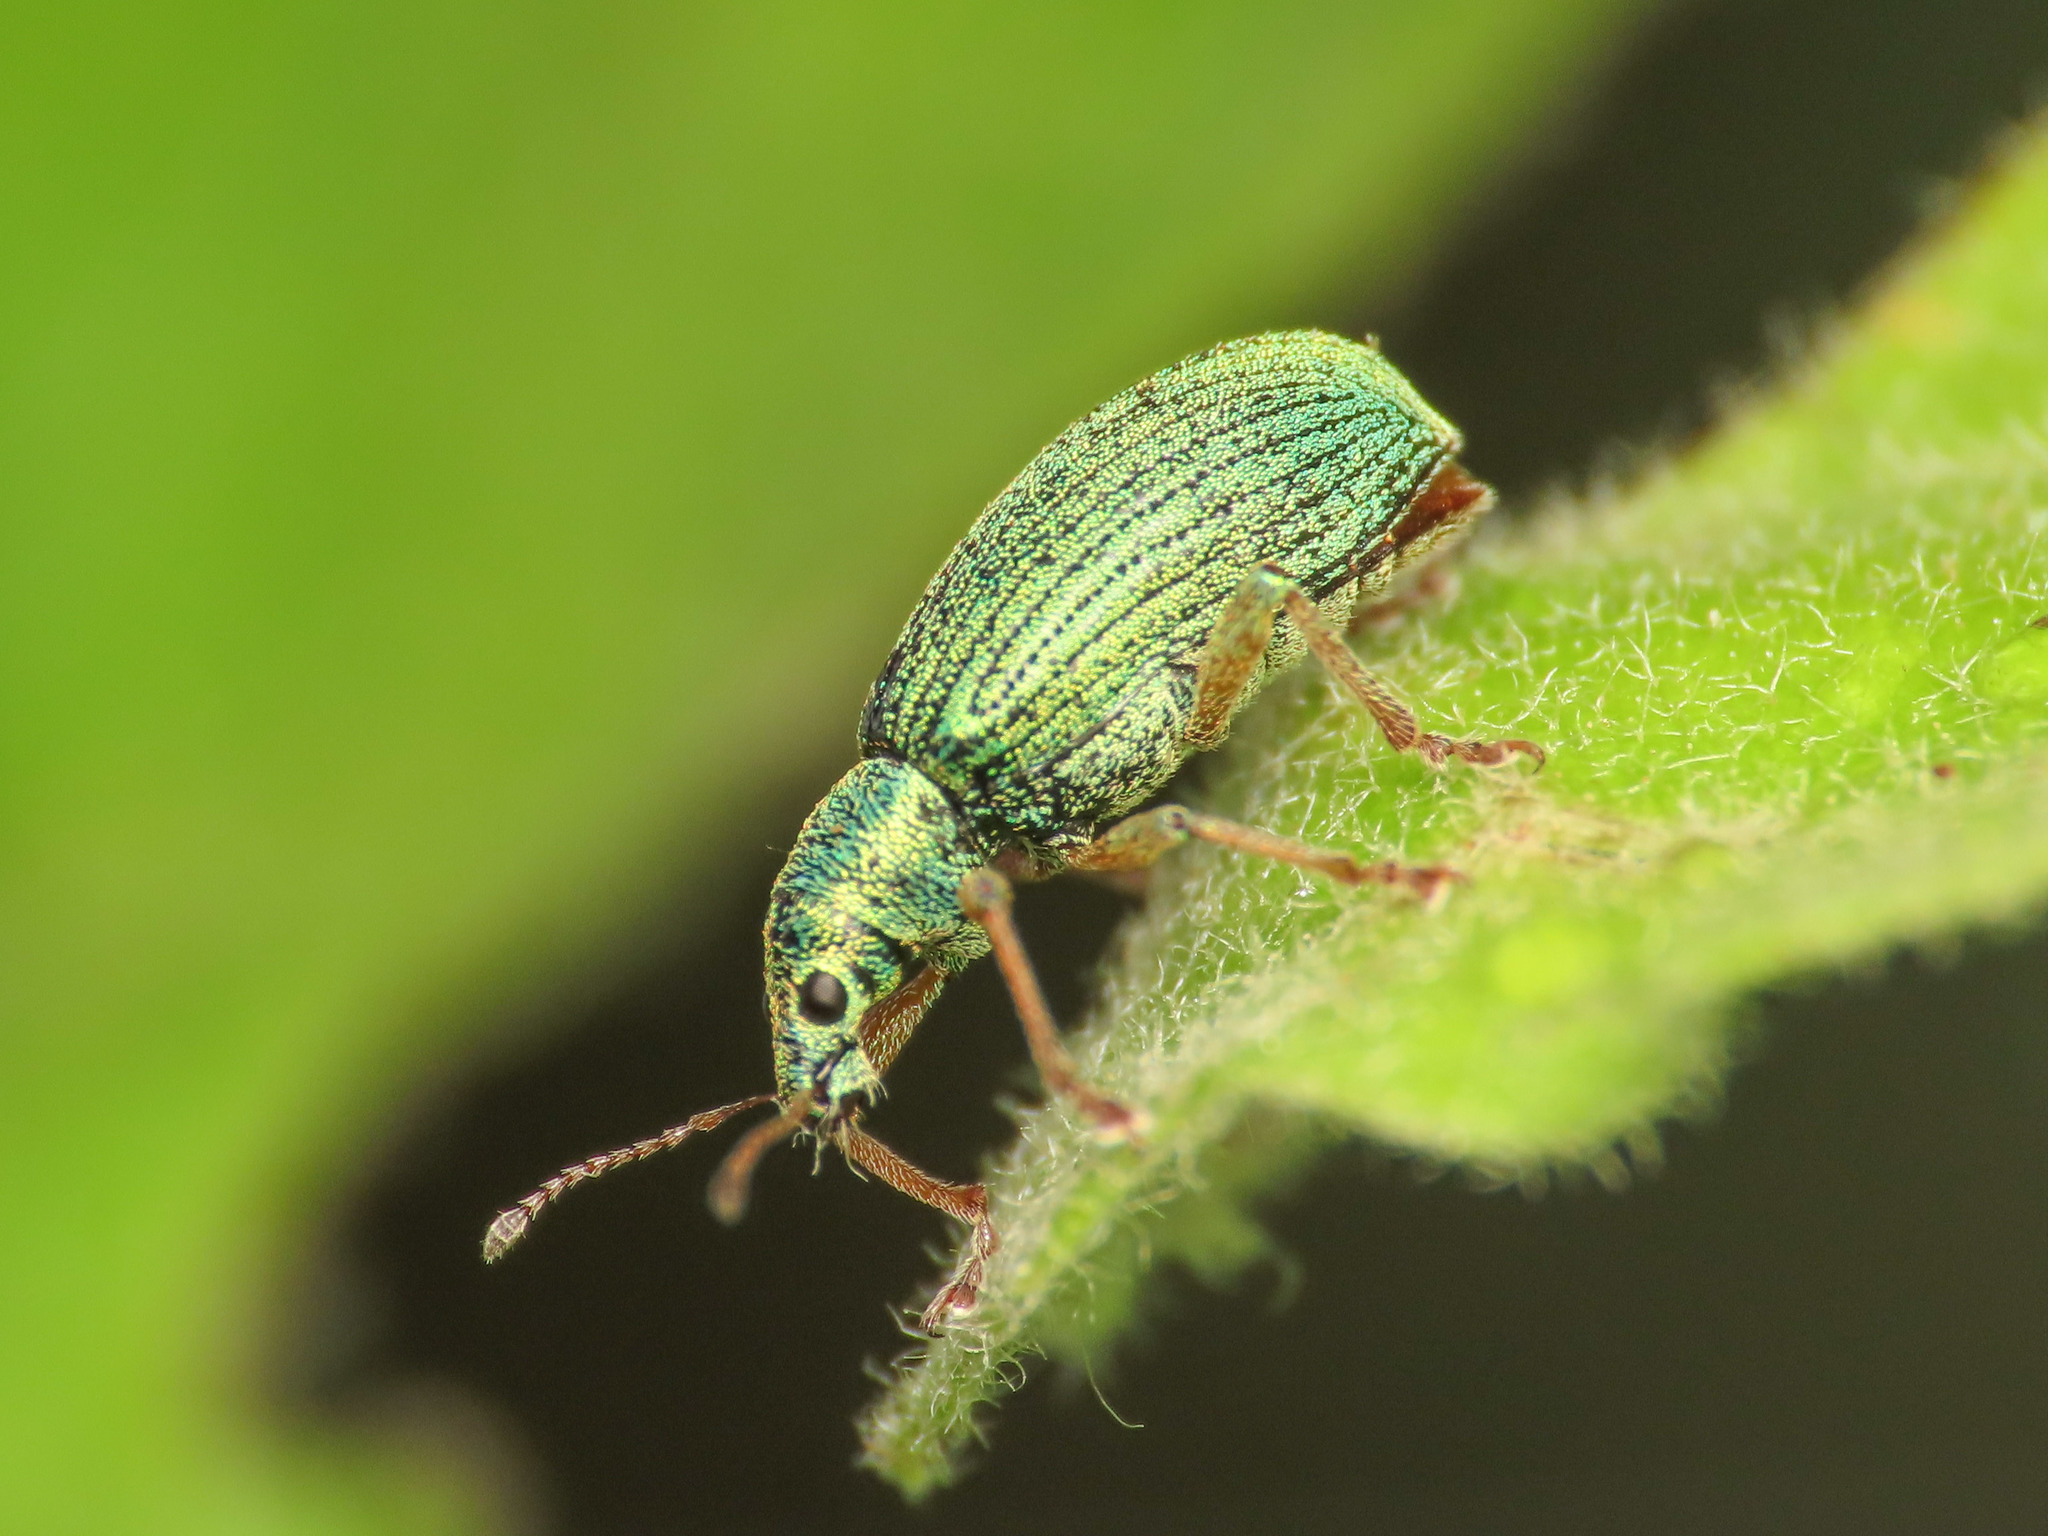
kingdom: Animalia
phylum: Arthropoda
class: Insecta
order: Coleoptera
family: Curculionidae
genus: Polydrusus
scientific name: Polydrusus formosus
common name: Weevil
